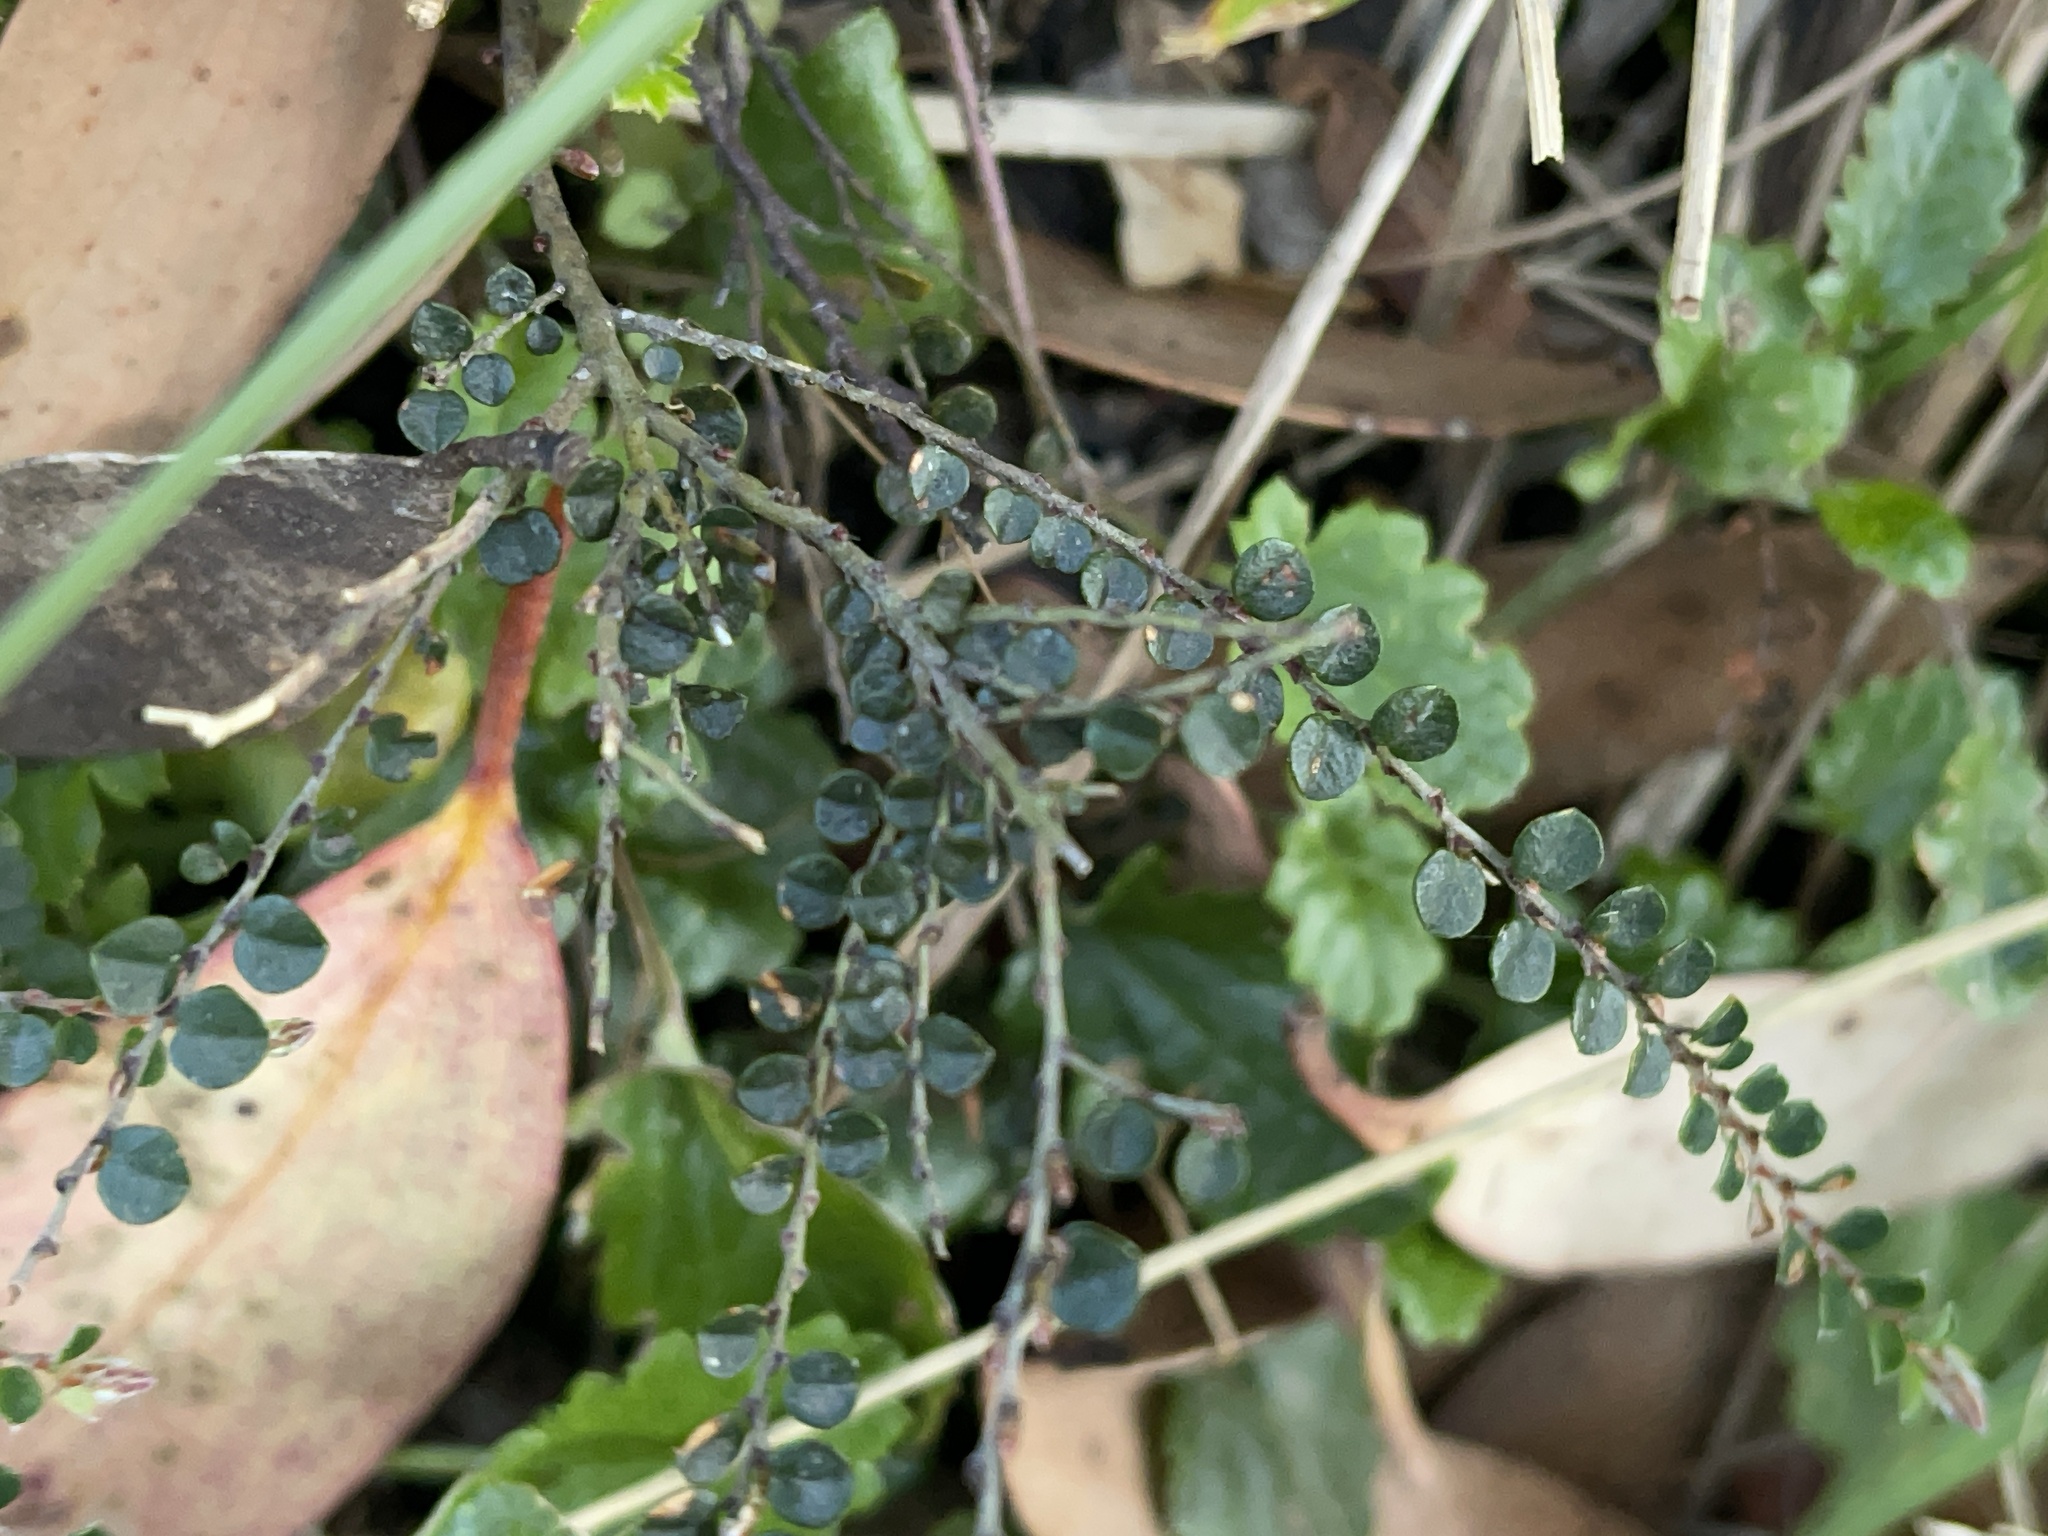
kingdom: Plantae
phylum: Tracheophyta
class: Magnoliopsida
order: Fabales
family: Fabaceae
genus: Bossiaea
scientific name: Bossiaea sericea
